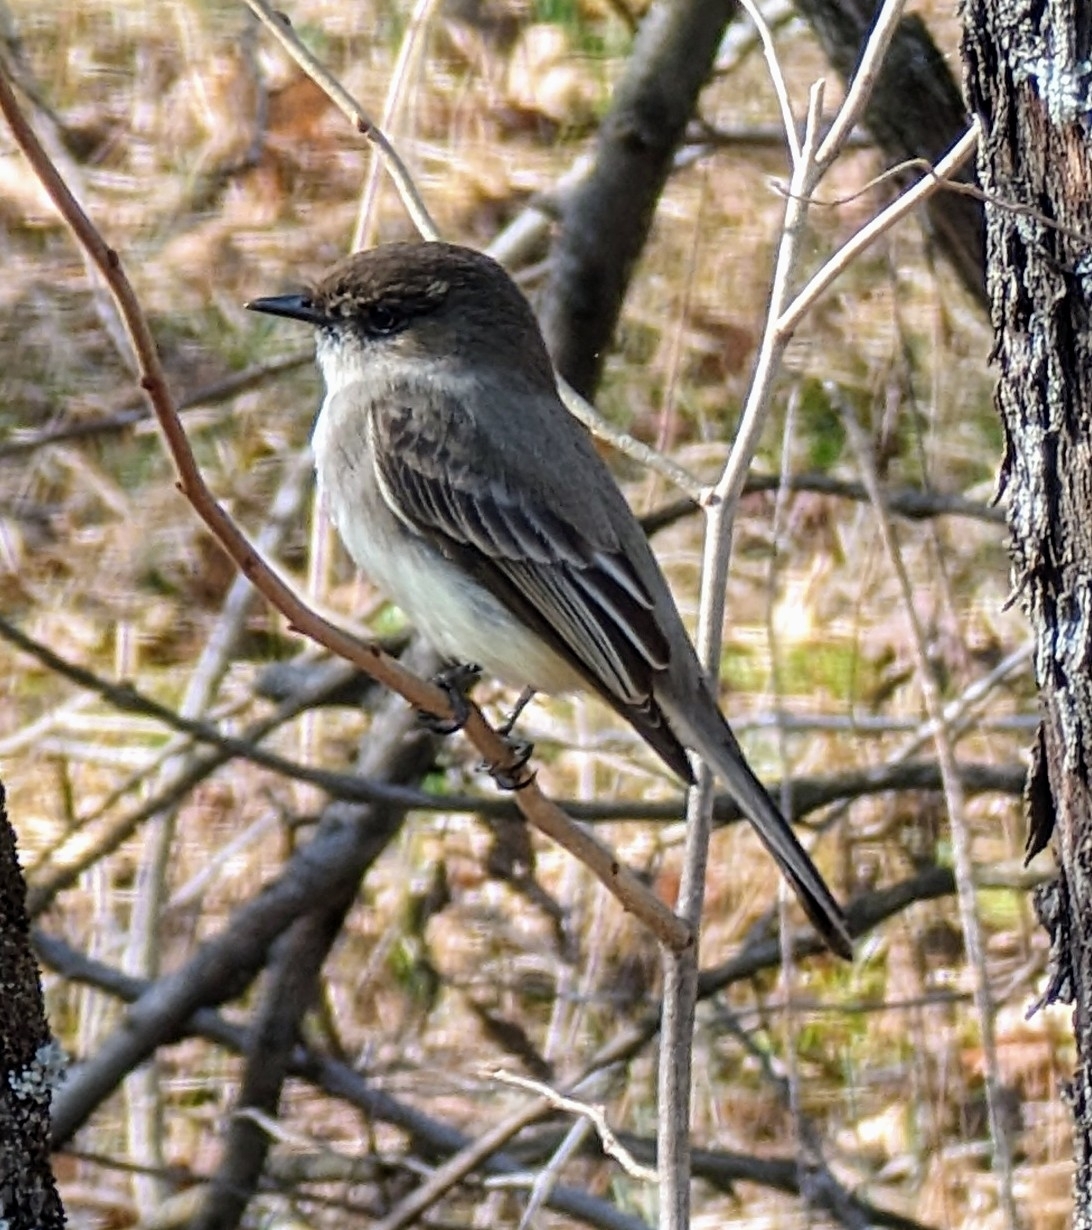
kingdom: Animalia
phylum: Chordata
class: Aves
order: Passeriformes
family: Tyrannidae
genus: Sayornis
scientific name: Sayornis phoebe
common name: Eastern phoebe
